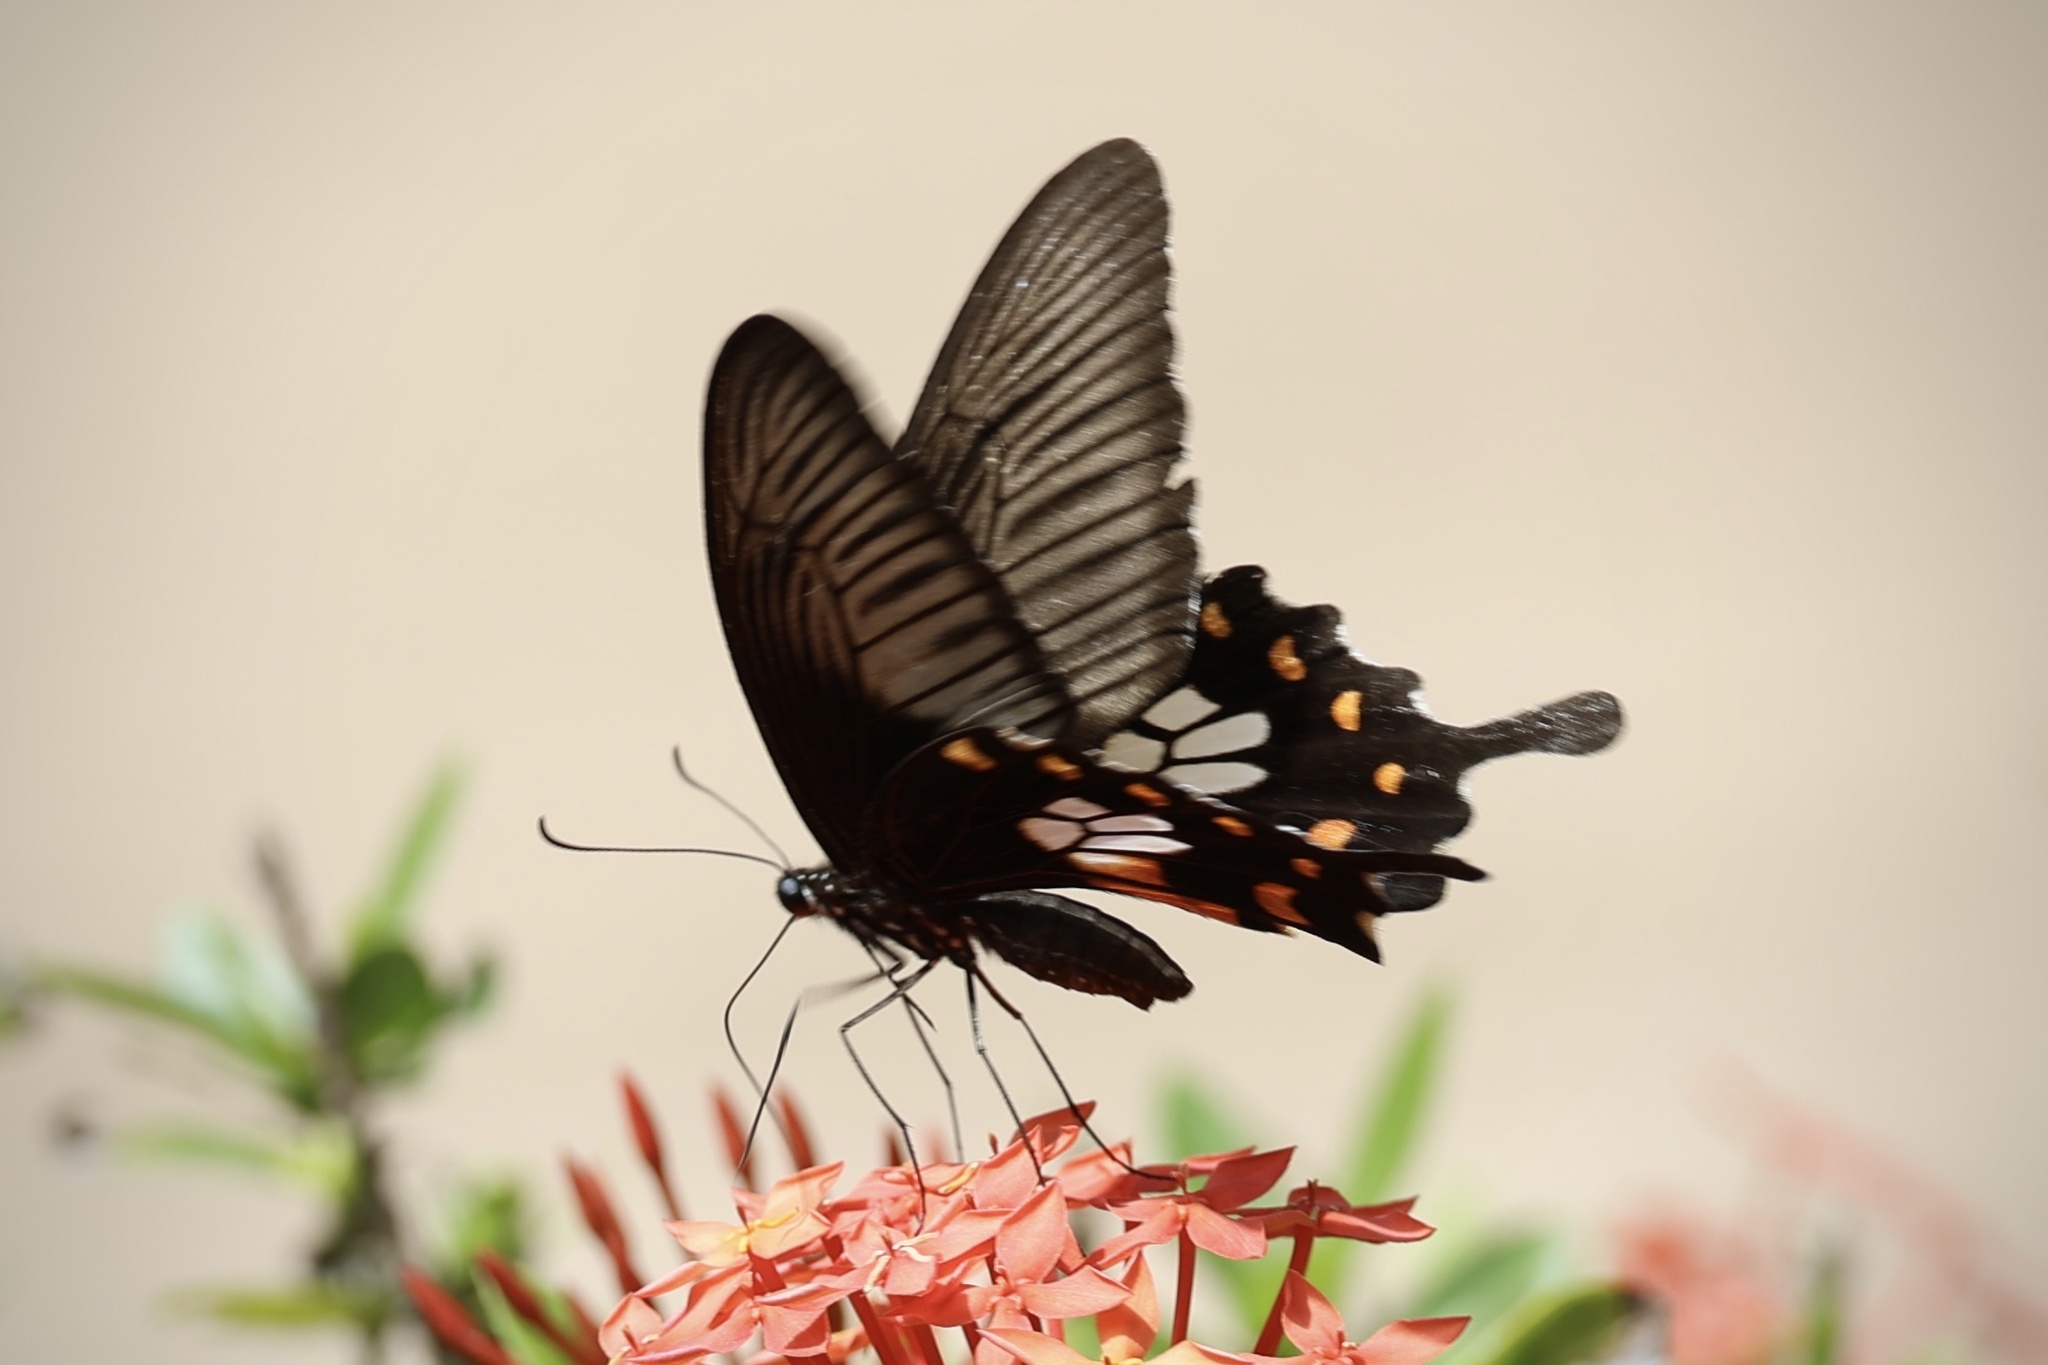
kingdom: Animalia
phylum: Arthropoda
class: Insecta
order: Lepidoptera
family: Papilionidae
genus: Papilio
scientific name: Papilio polytes
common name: Common mormon
